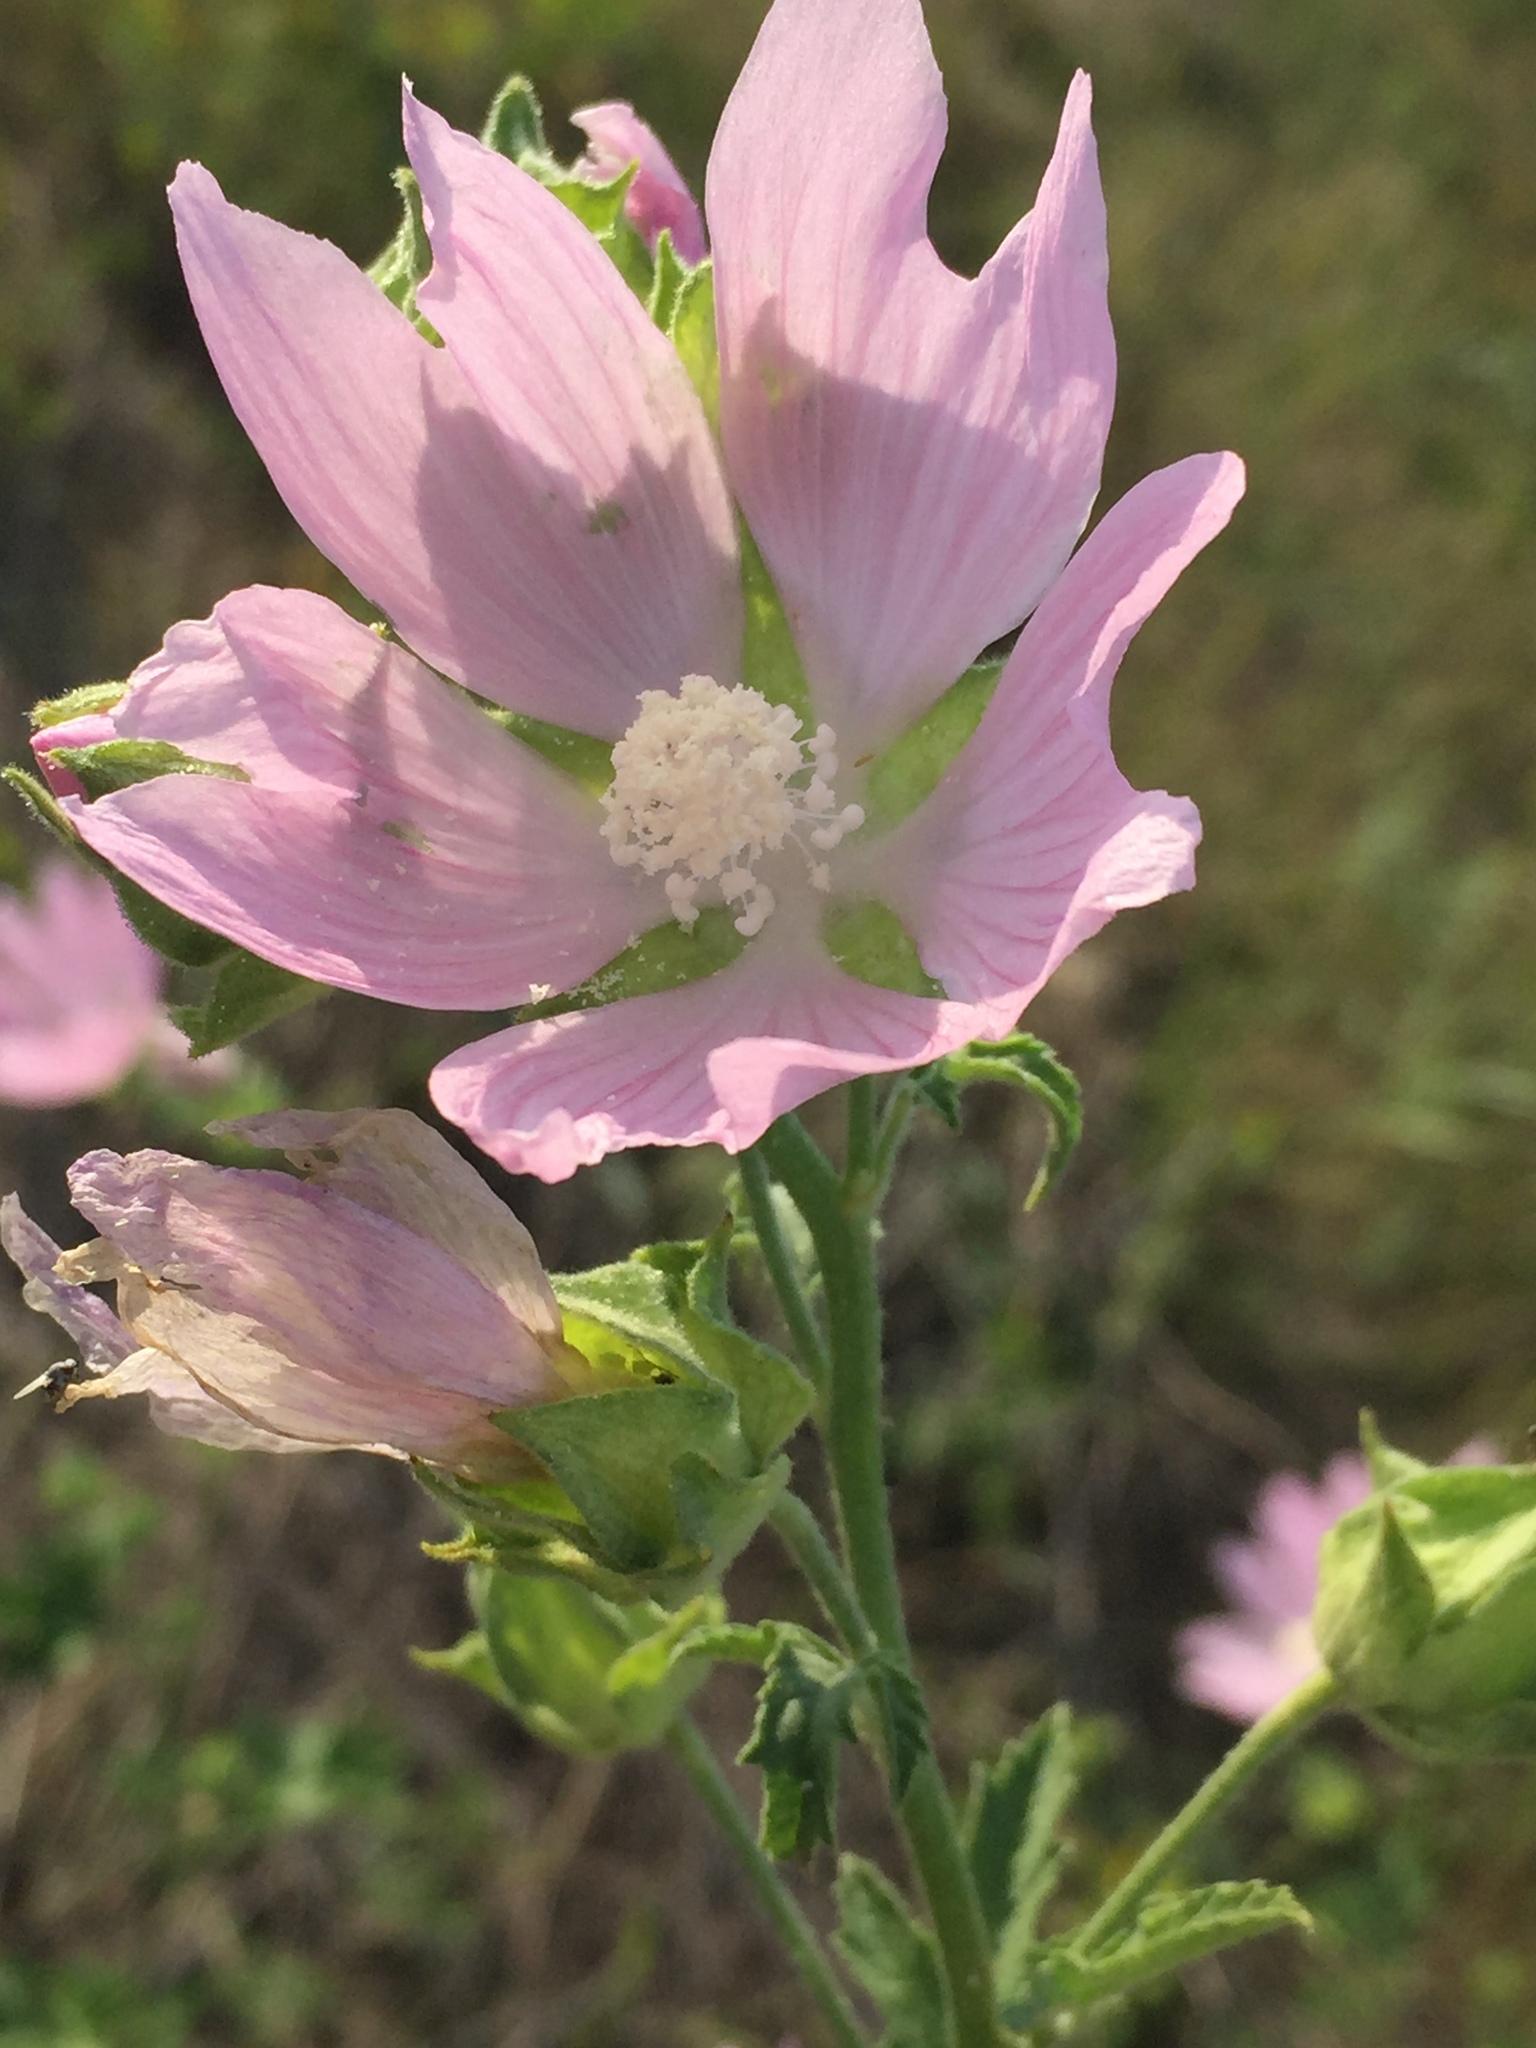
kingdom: Plantae
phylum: Tracheophyta
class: Magnoliopsida
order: Malvales
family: Malvaceae
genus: Malva
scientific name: Malva thuringiaca
